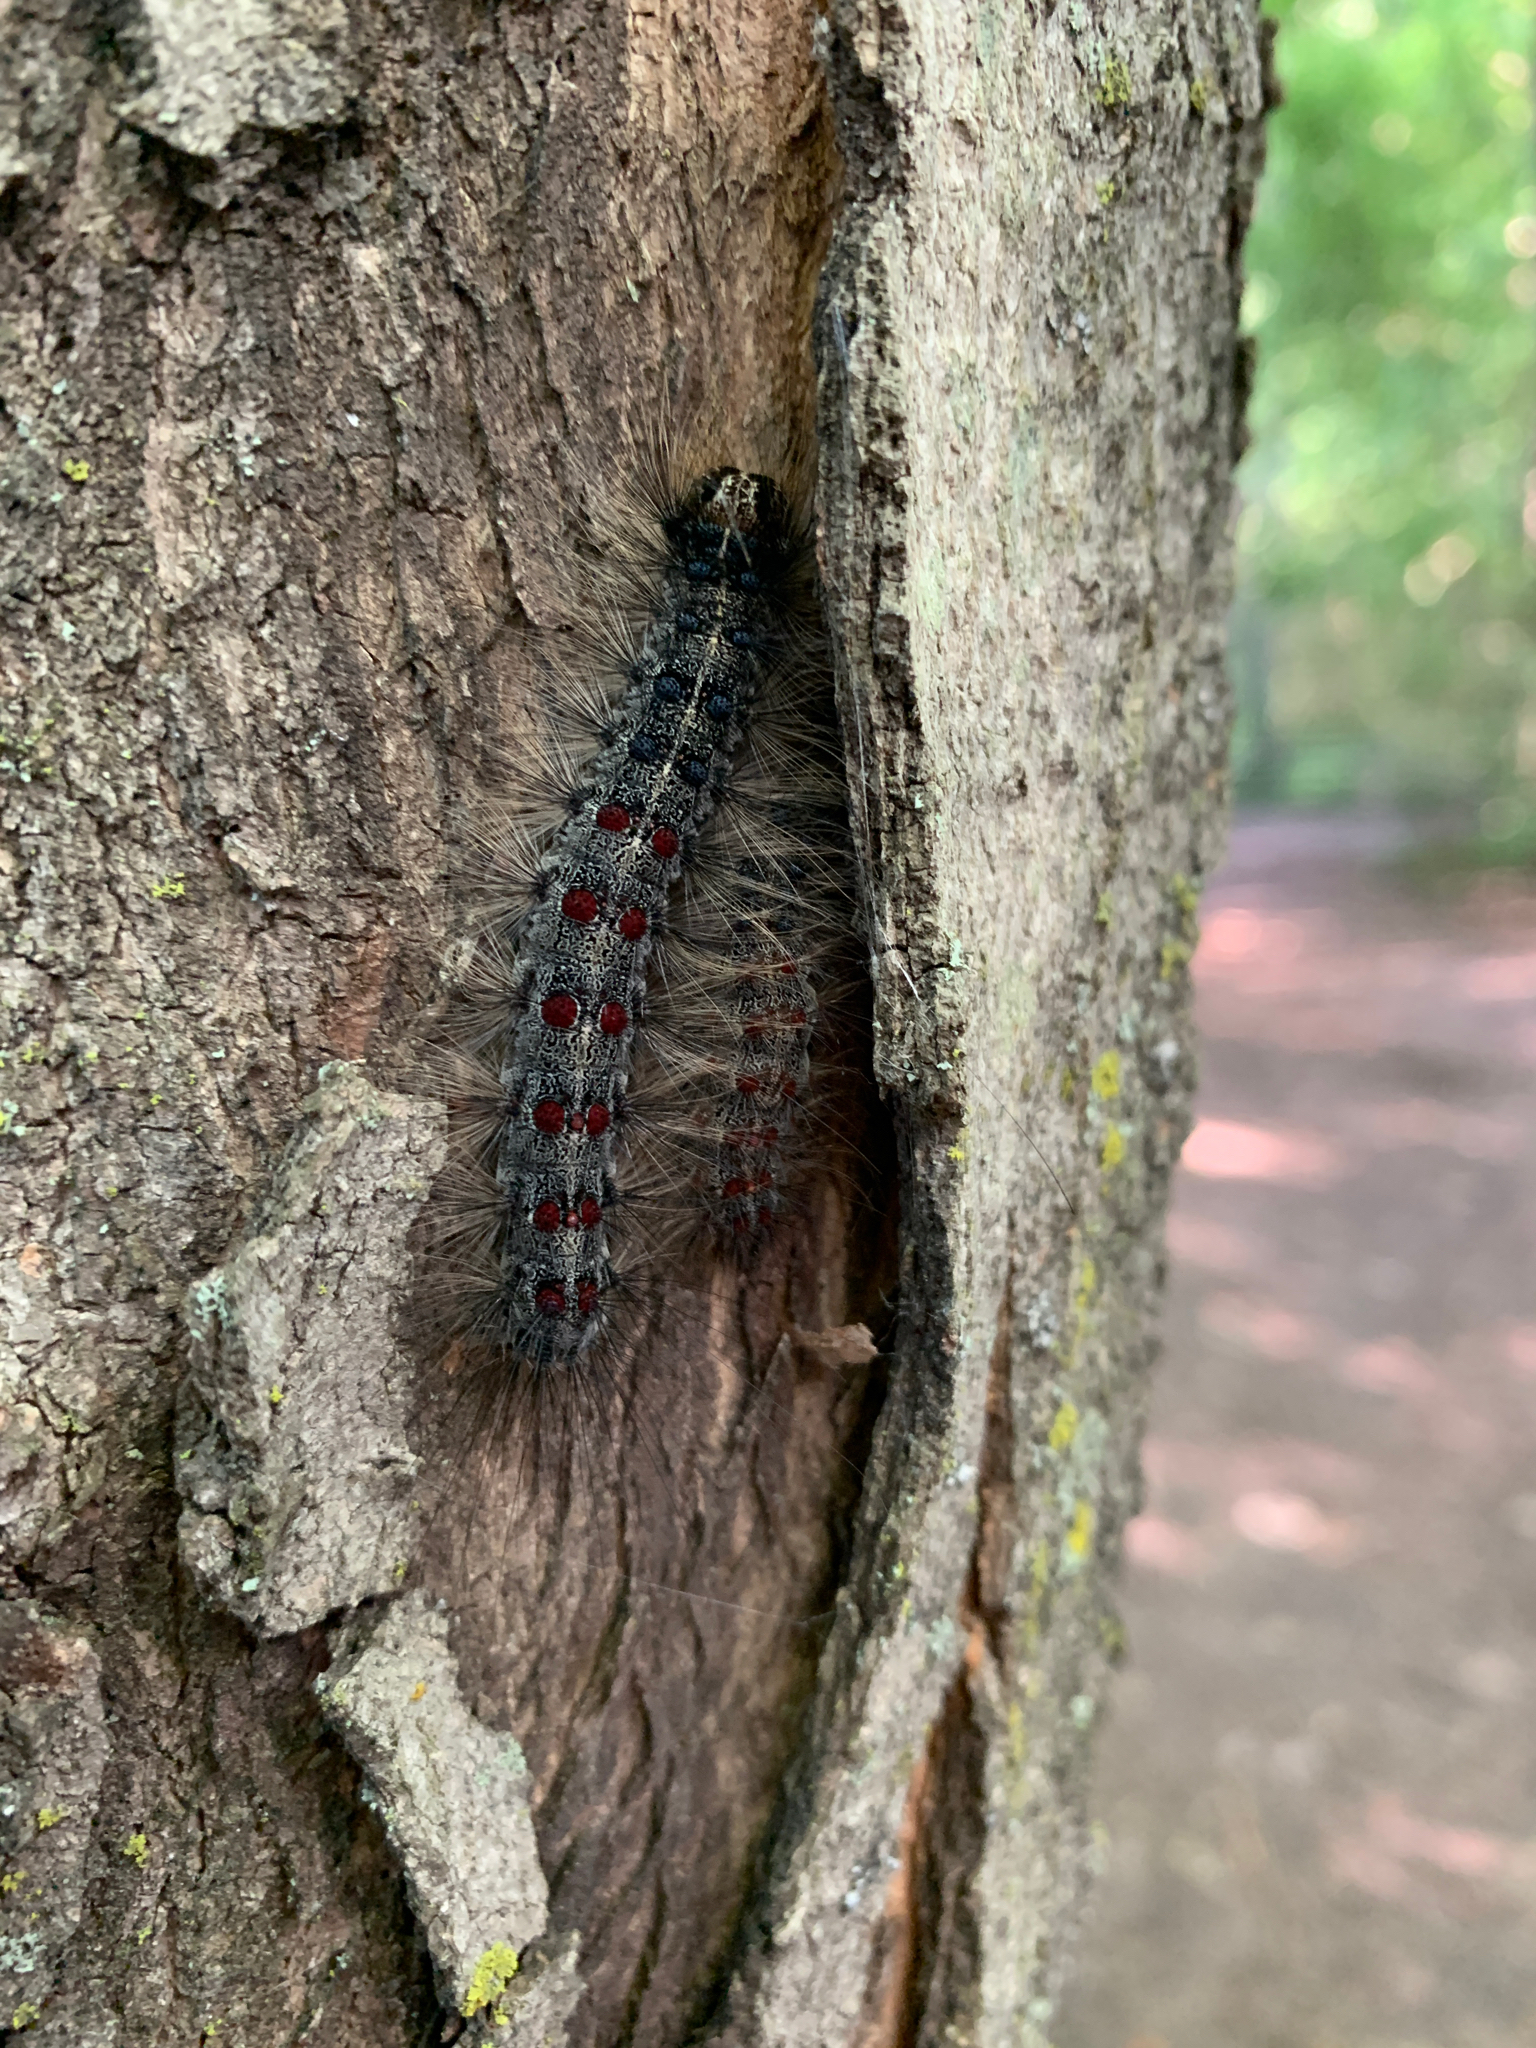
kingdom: Animalia
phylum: Arthropoda
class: Insecta
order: Lepidoptera
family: Erebidae
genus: Lymantria
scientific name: Lymantria dispar
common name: Gypsy moth
